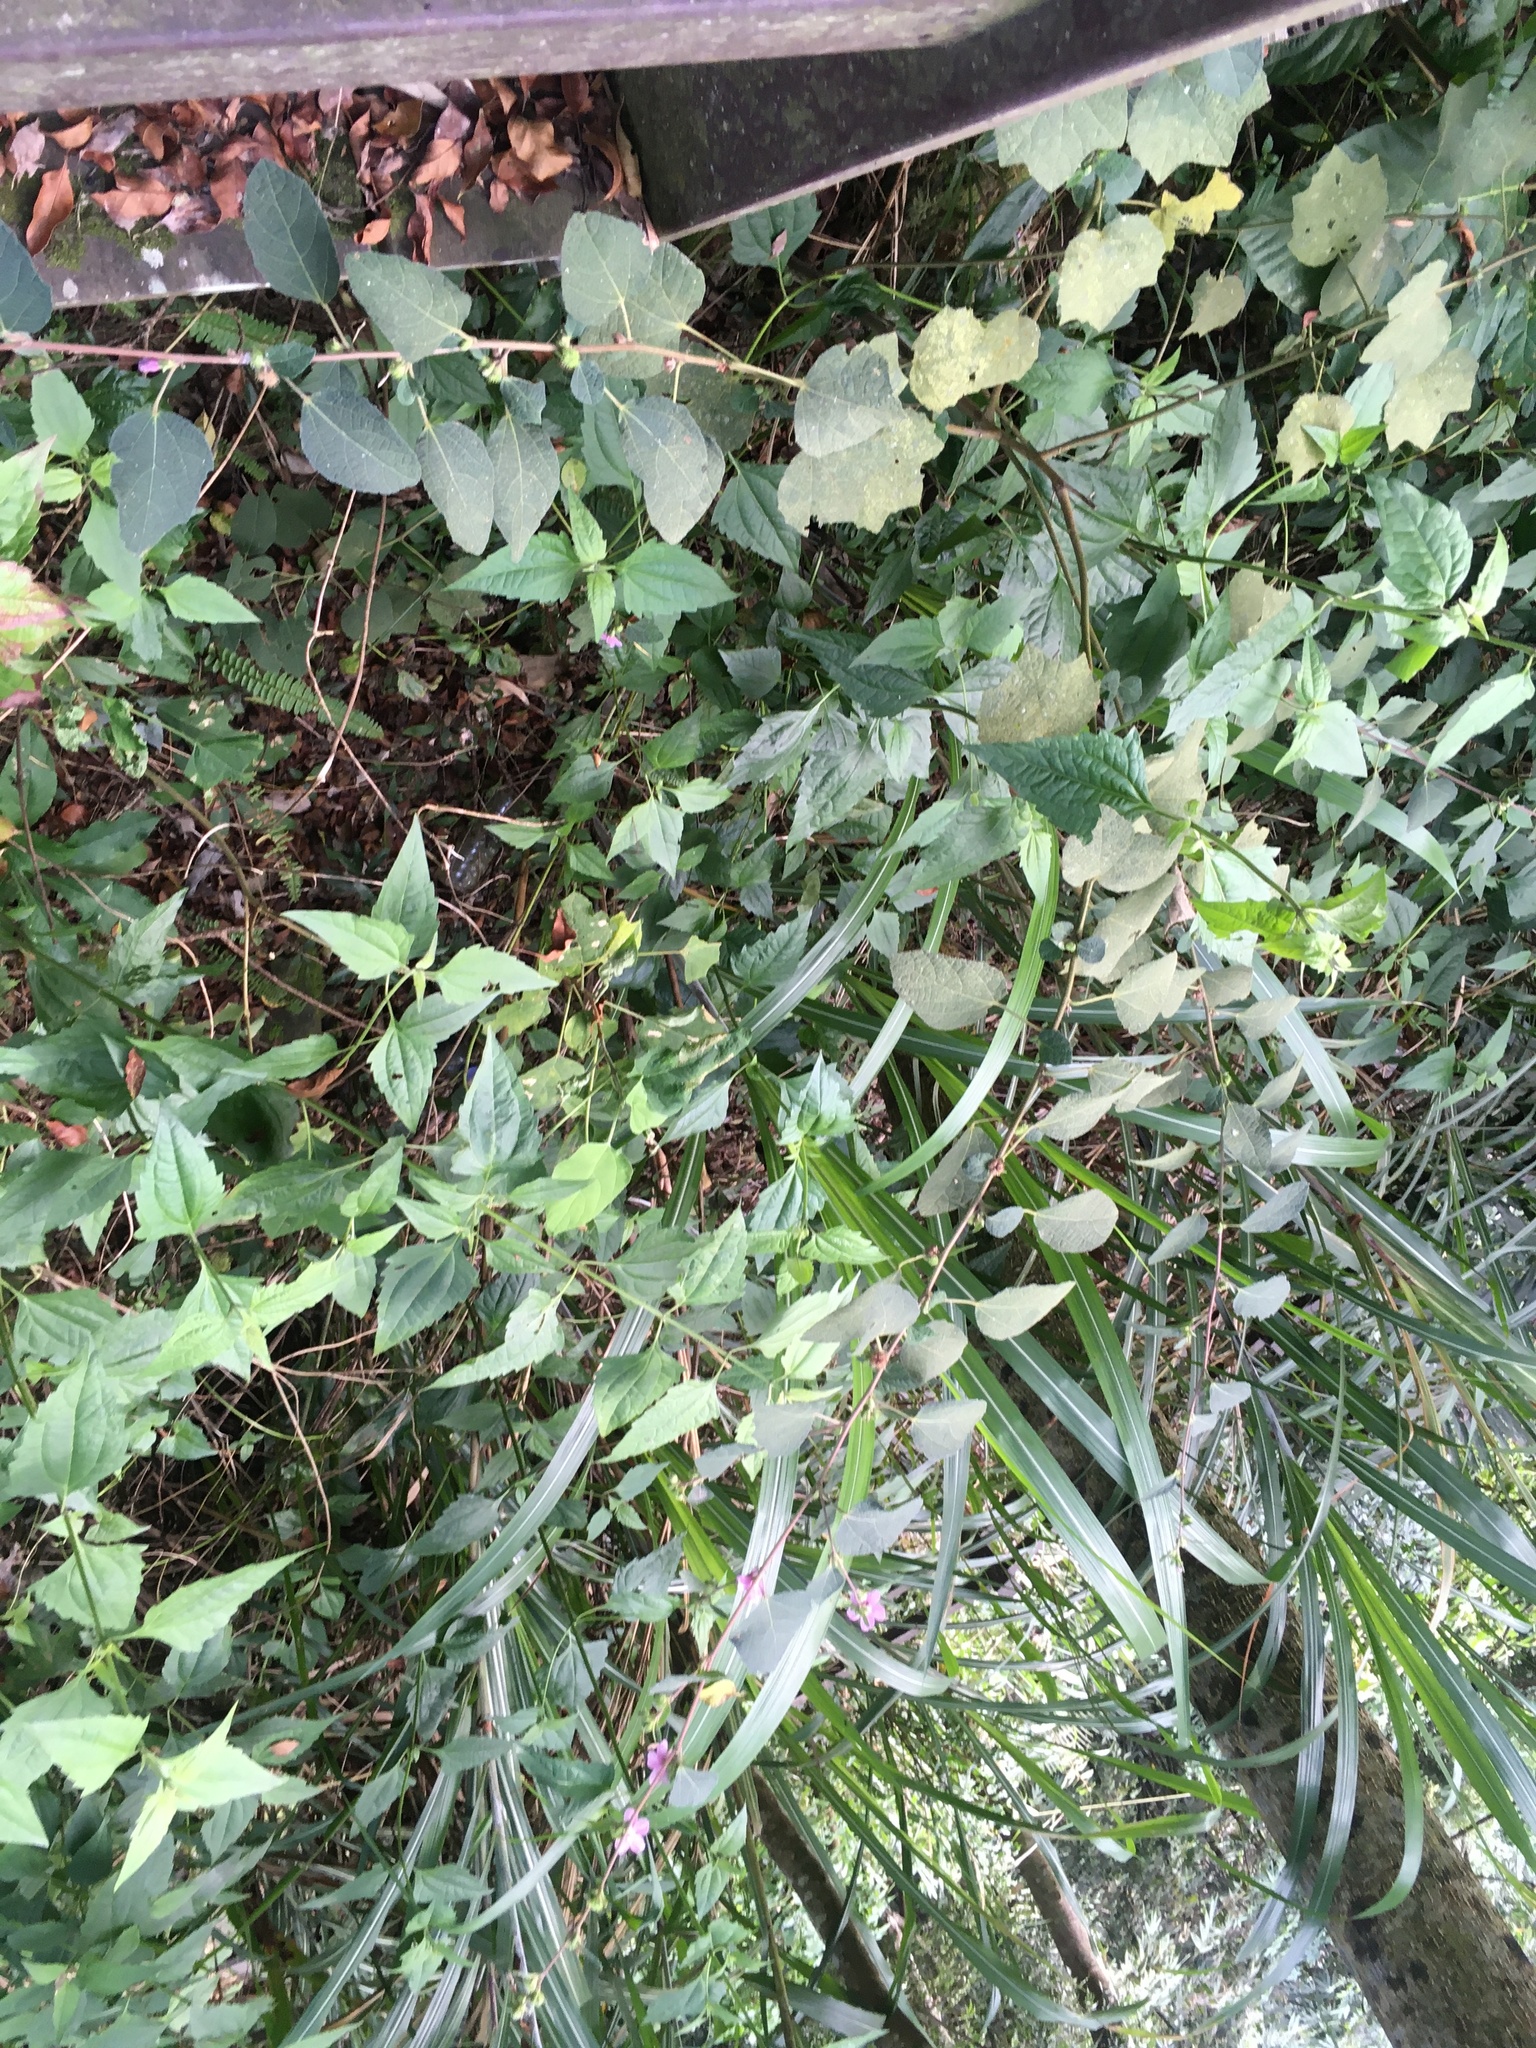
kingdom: Plantae
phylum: Tracheophyta
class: Magnoliopsida
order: Malvales
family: Malvaceae
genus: Urena
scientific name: Urena procumbens
